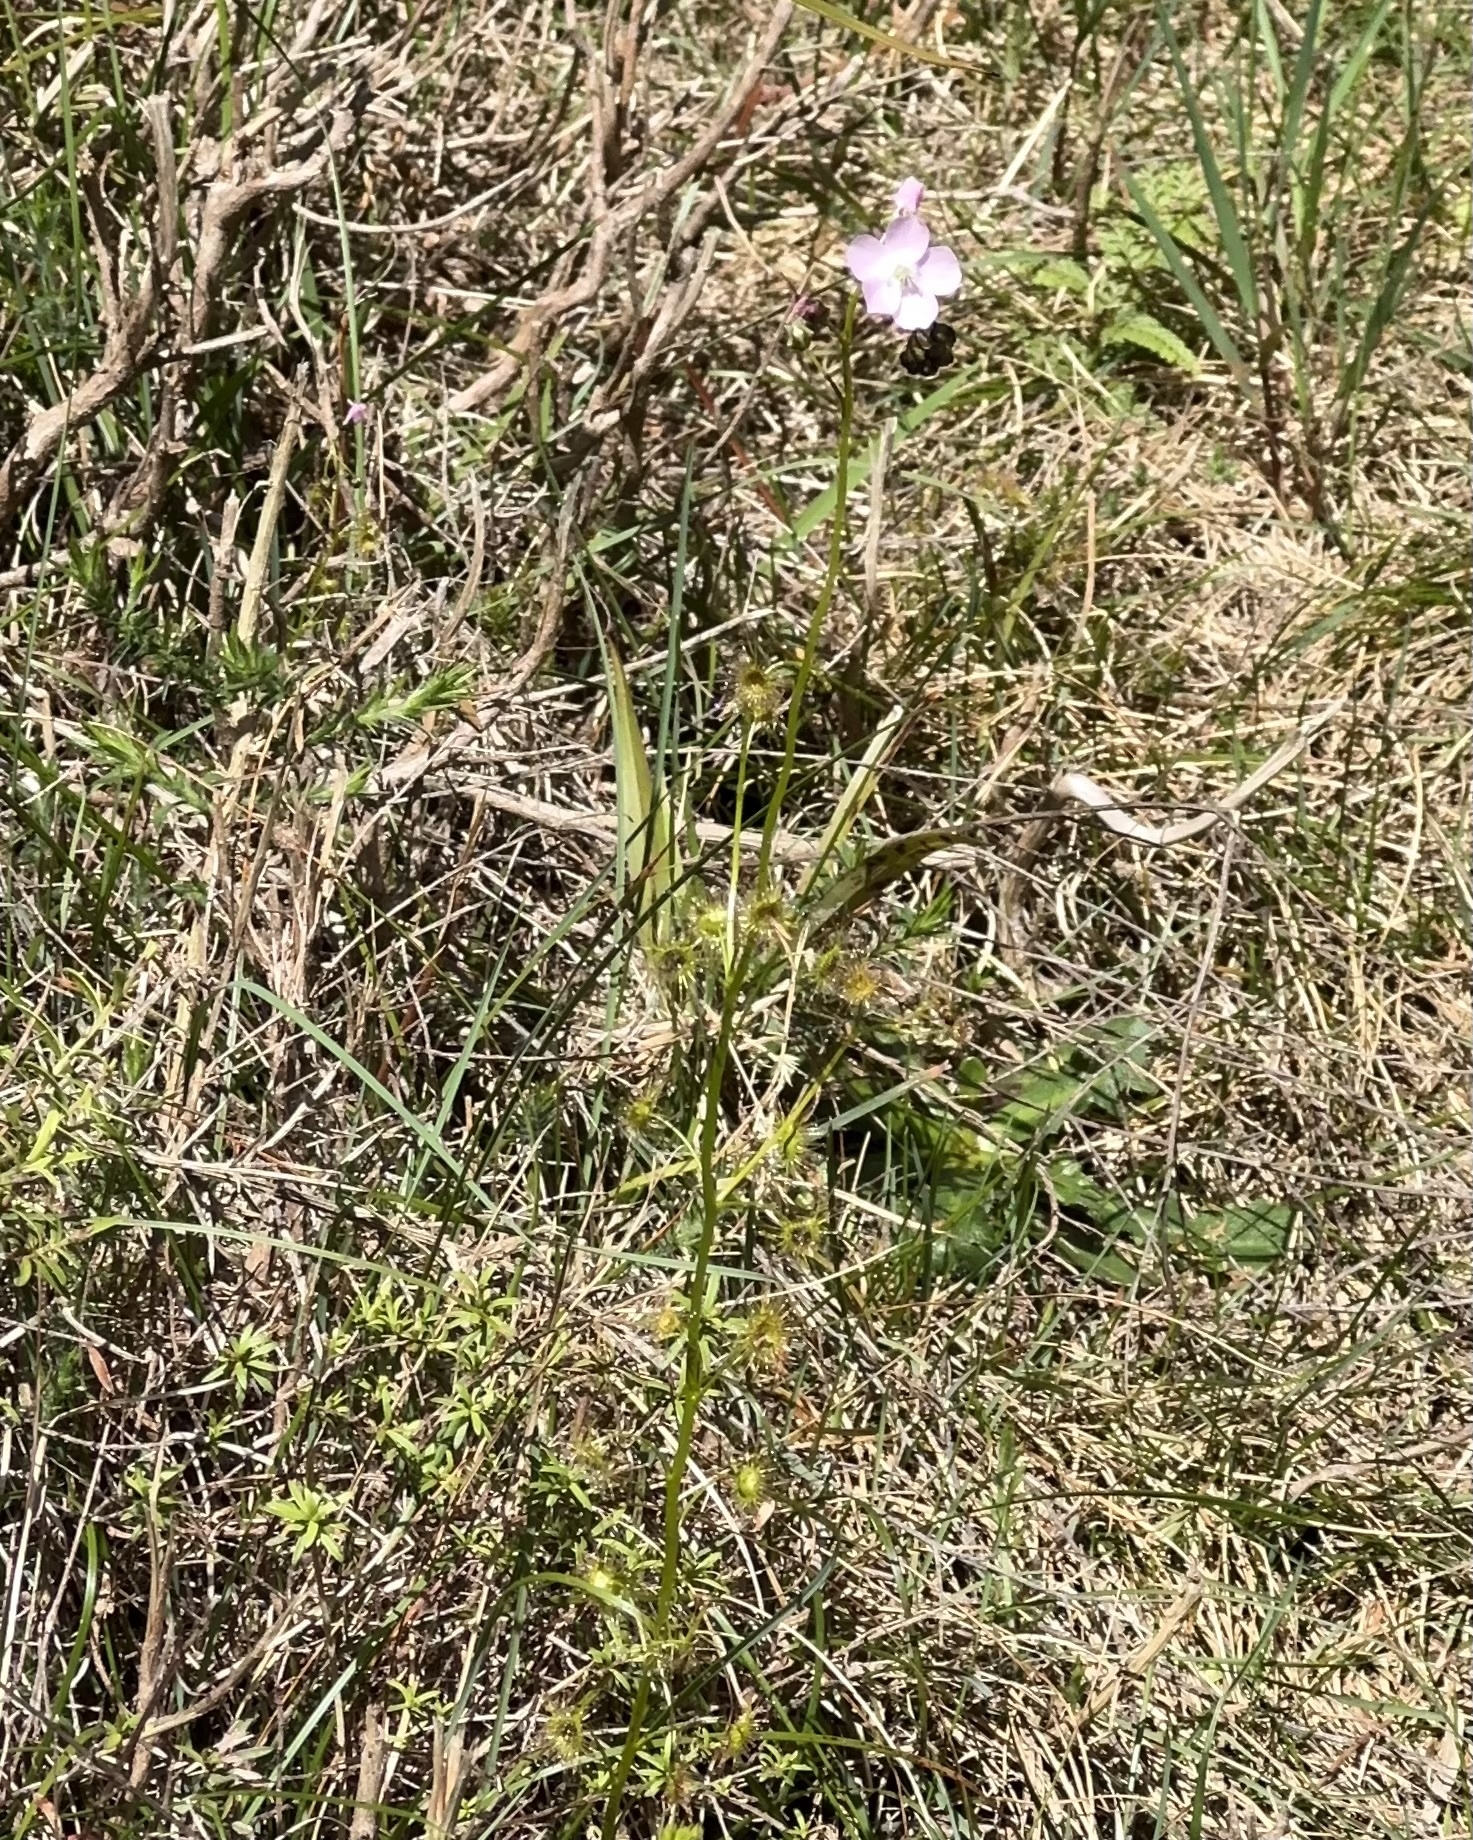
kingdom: Plantae
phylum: Tracheophyta
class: Magnoliopsida
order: Caryophyllales
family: Droseraceae
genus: Drosera
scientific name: Drosera peltata
